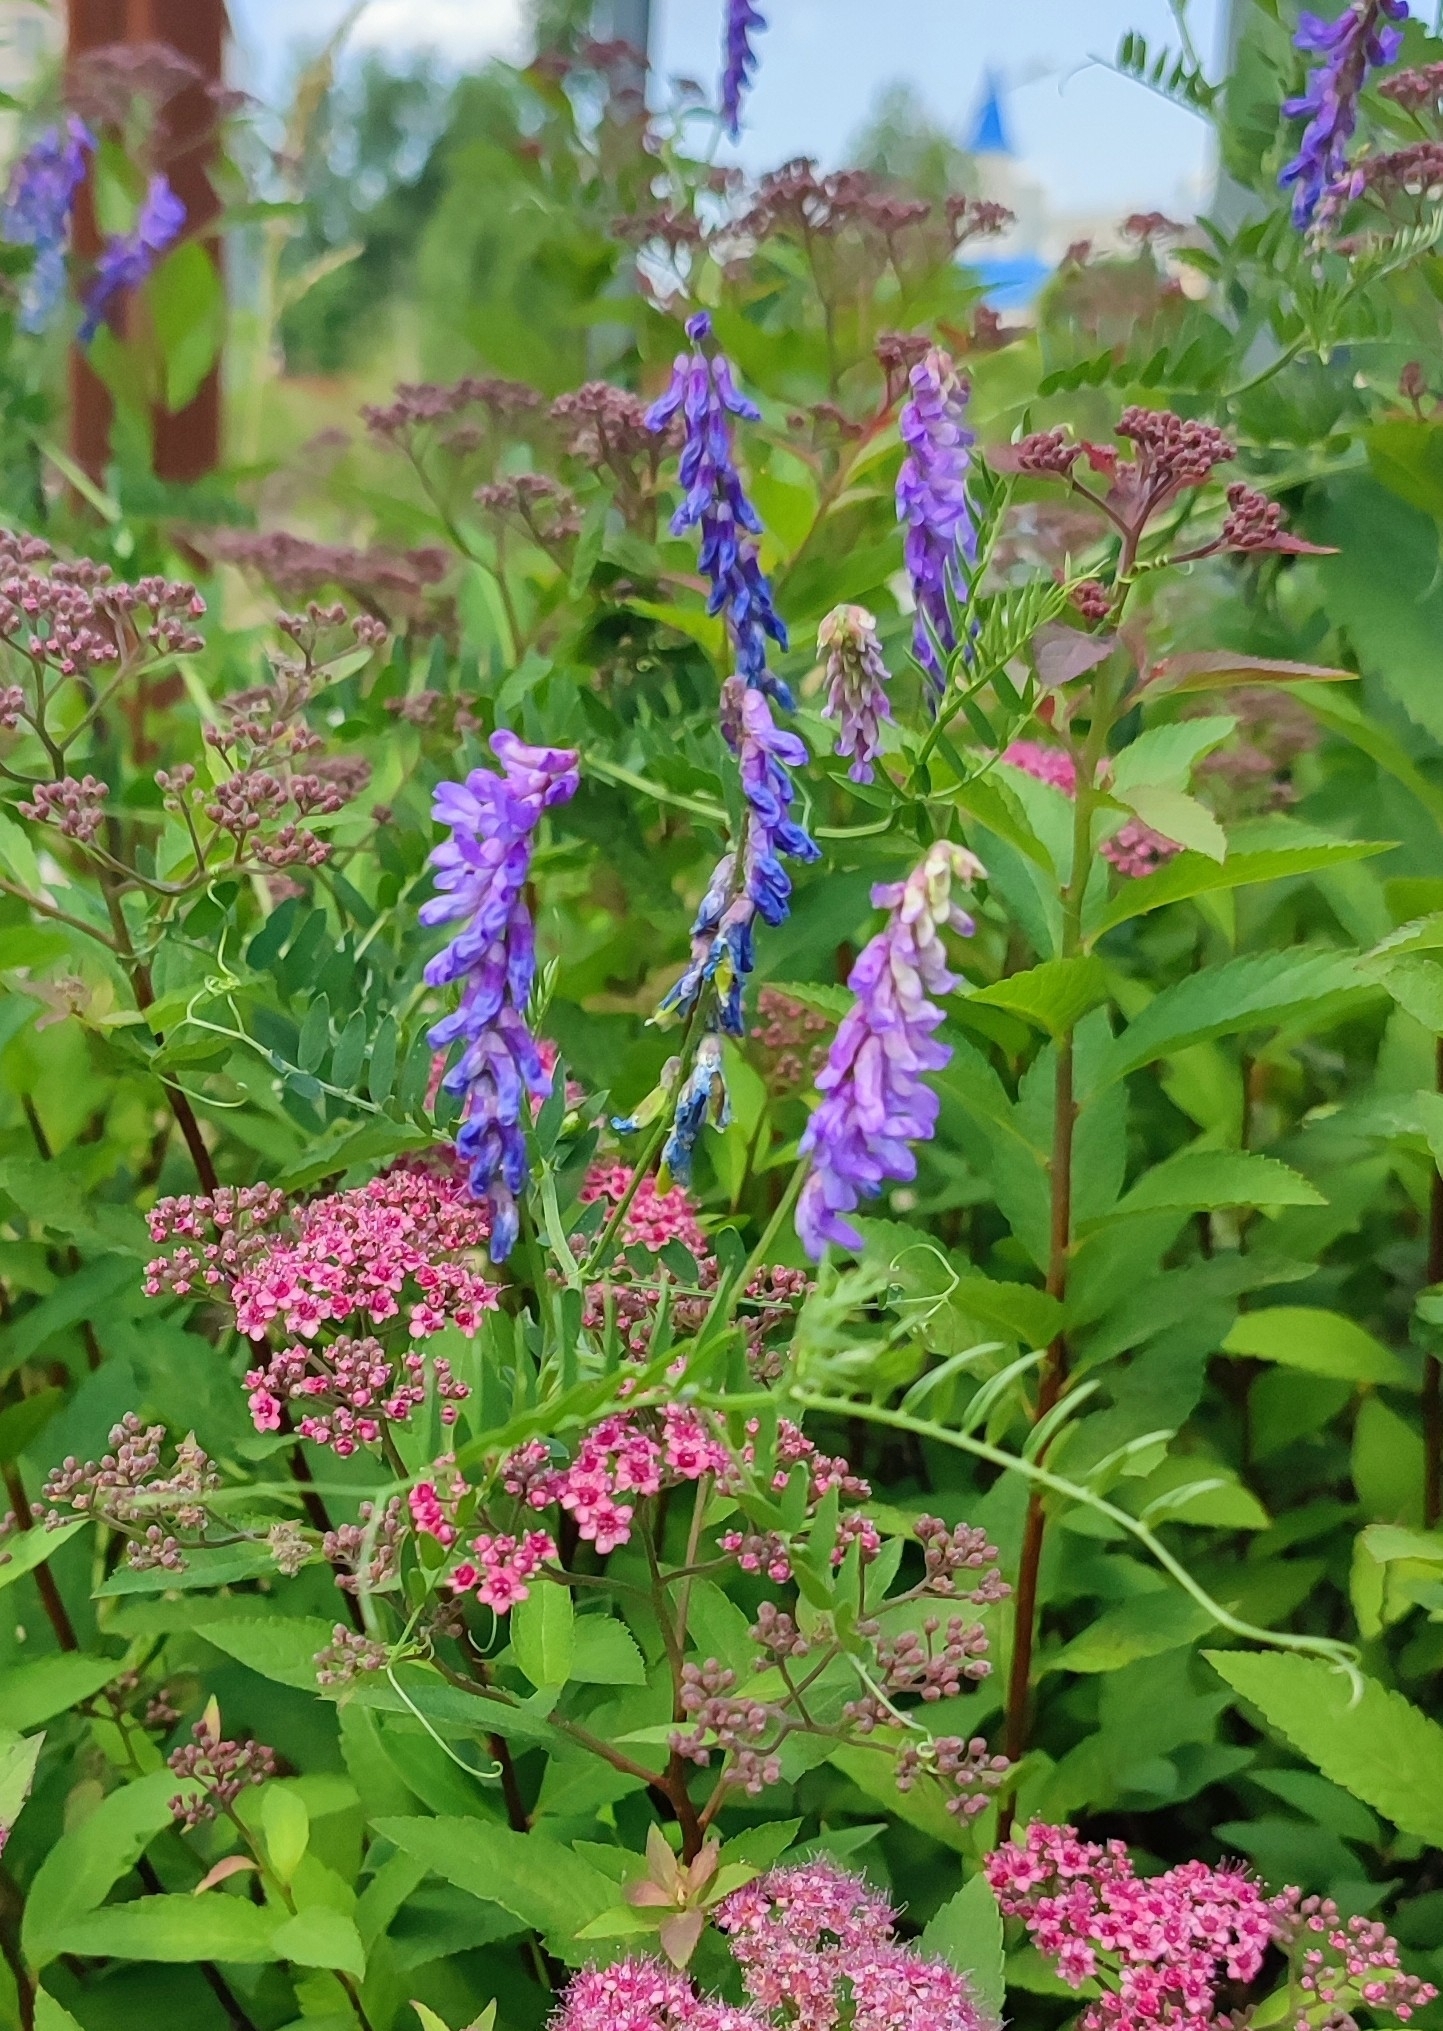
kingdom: Plantae
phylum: Tracheophyta
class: Magnoliopsida
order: Fabales
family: Fabaceae
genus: Vicia
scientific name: Vicia cracca
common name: Bird vetch
